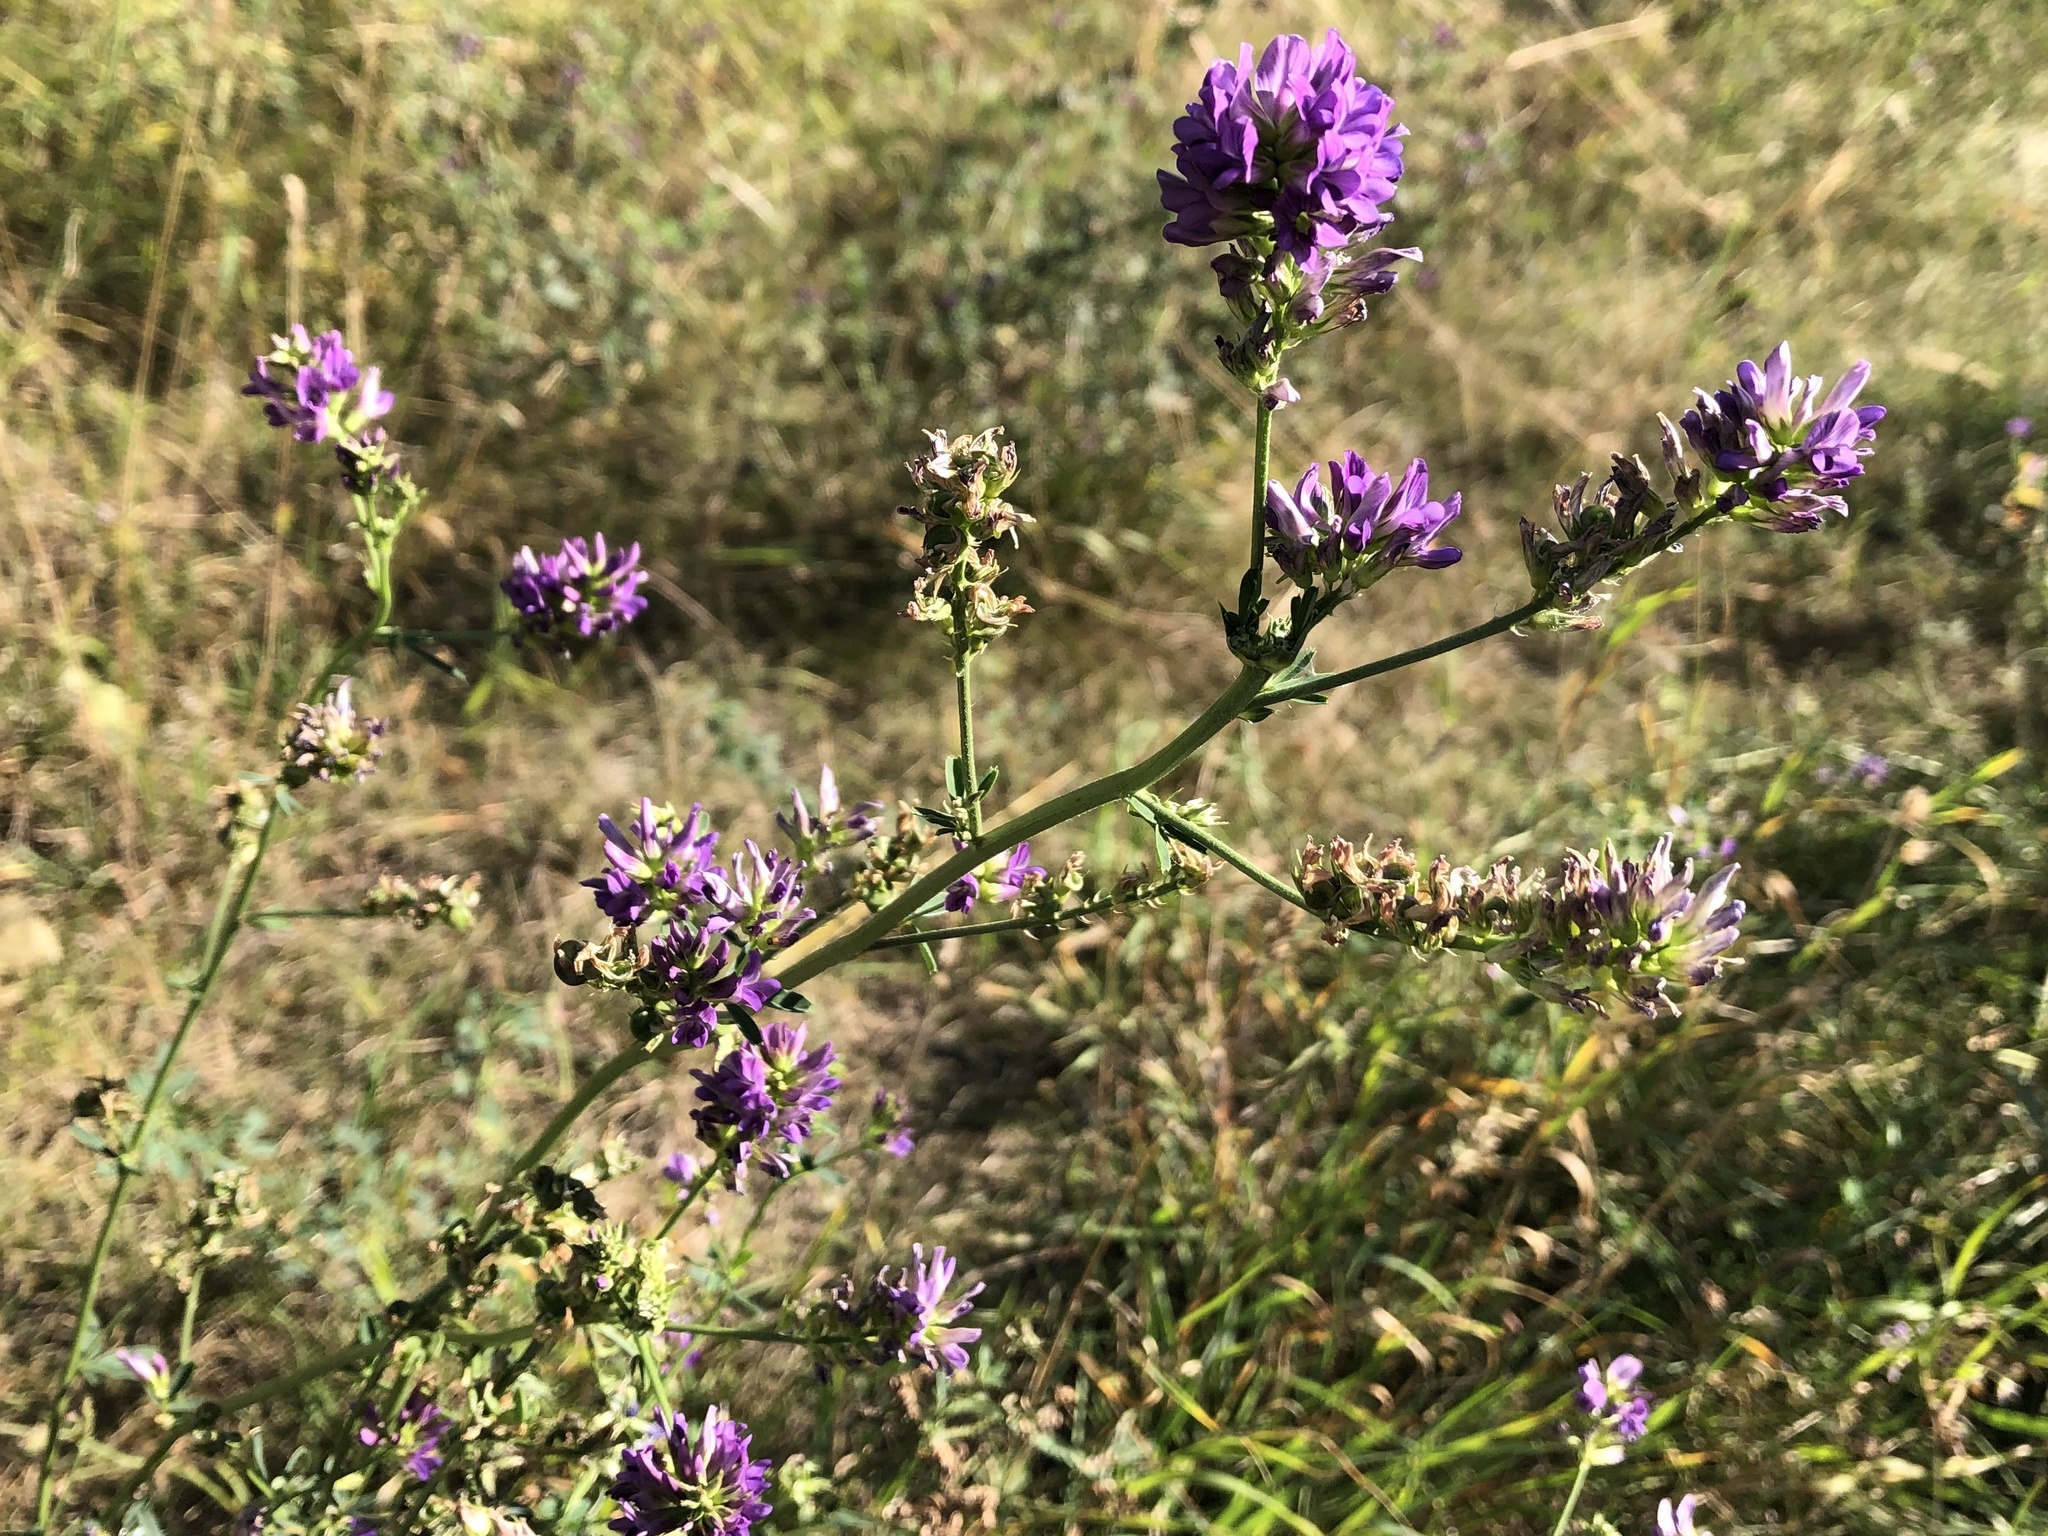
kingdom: Plantae
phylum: Tracheophyta
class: Magnoliopsida
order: Fabales
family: Fabaceae
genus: Medicago
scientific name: Medicago sativa
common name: Alfalfa
